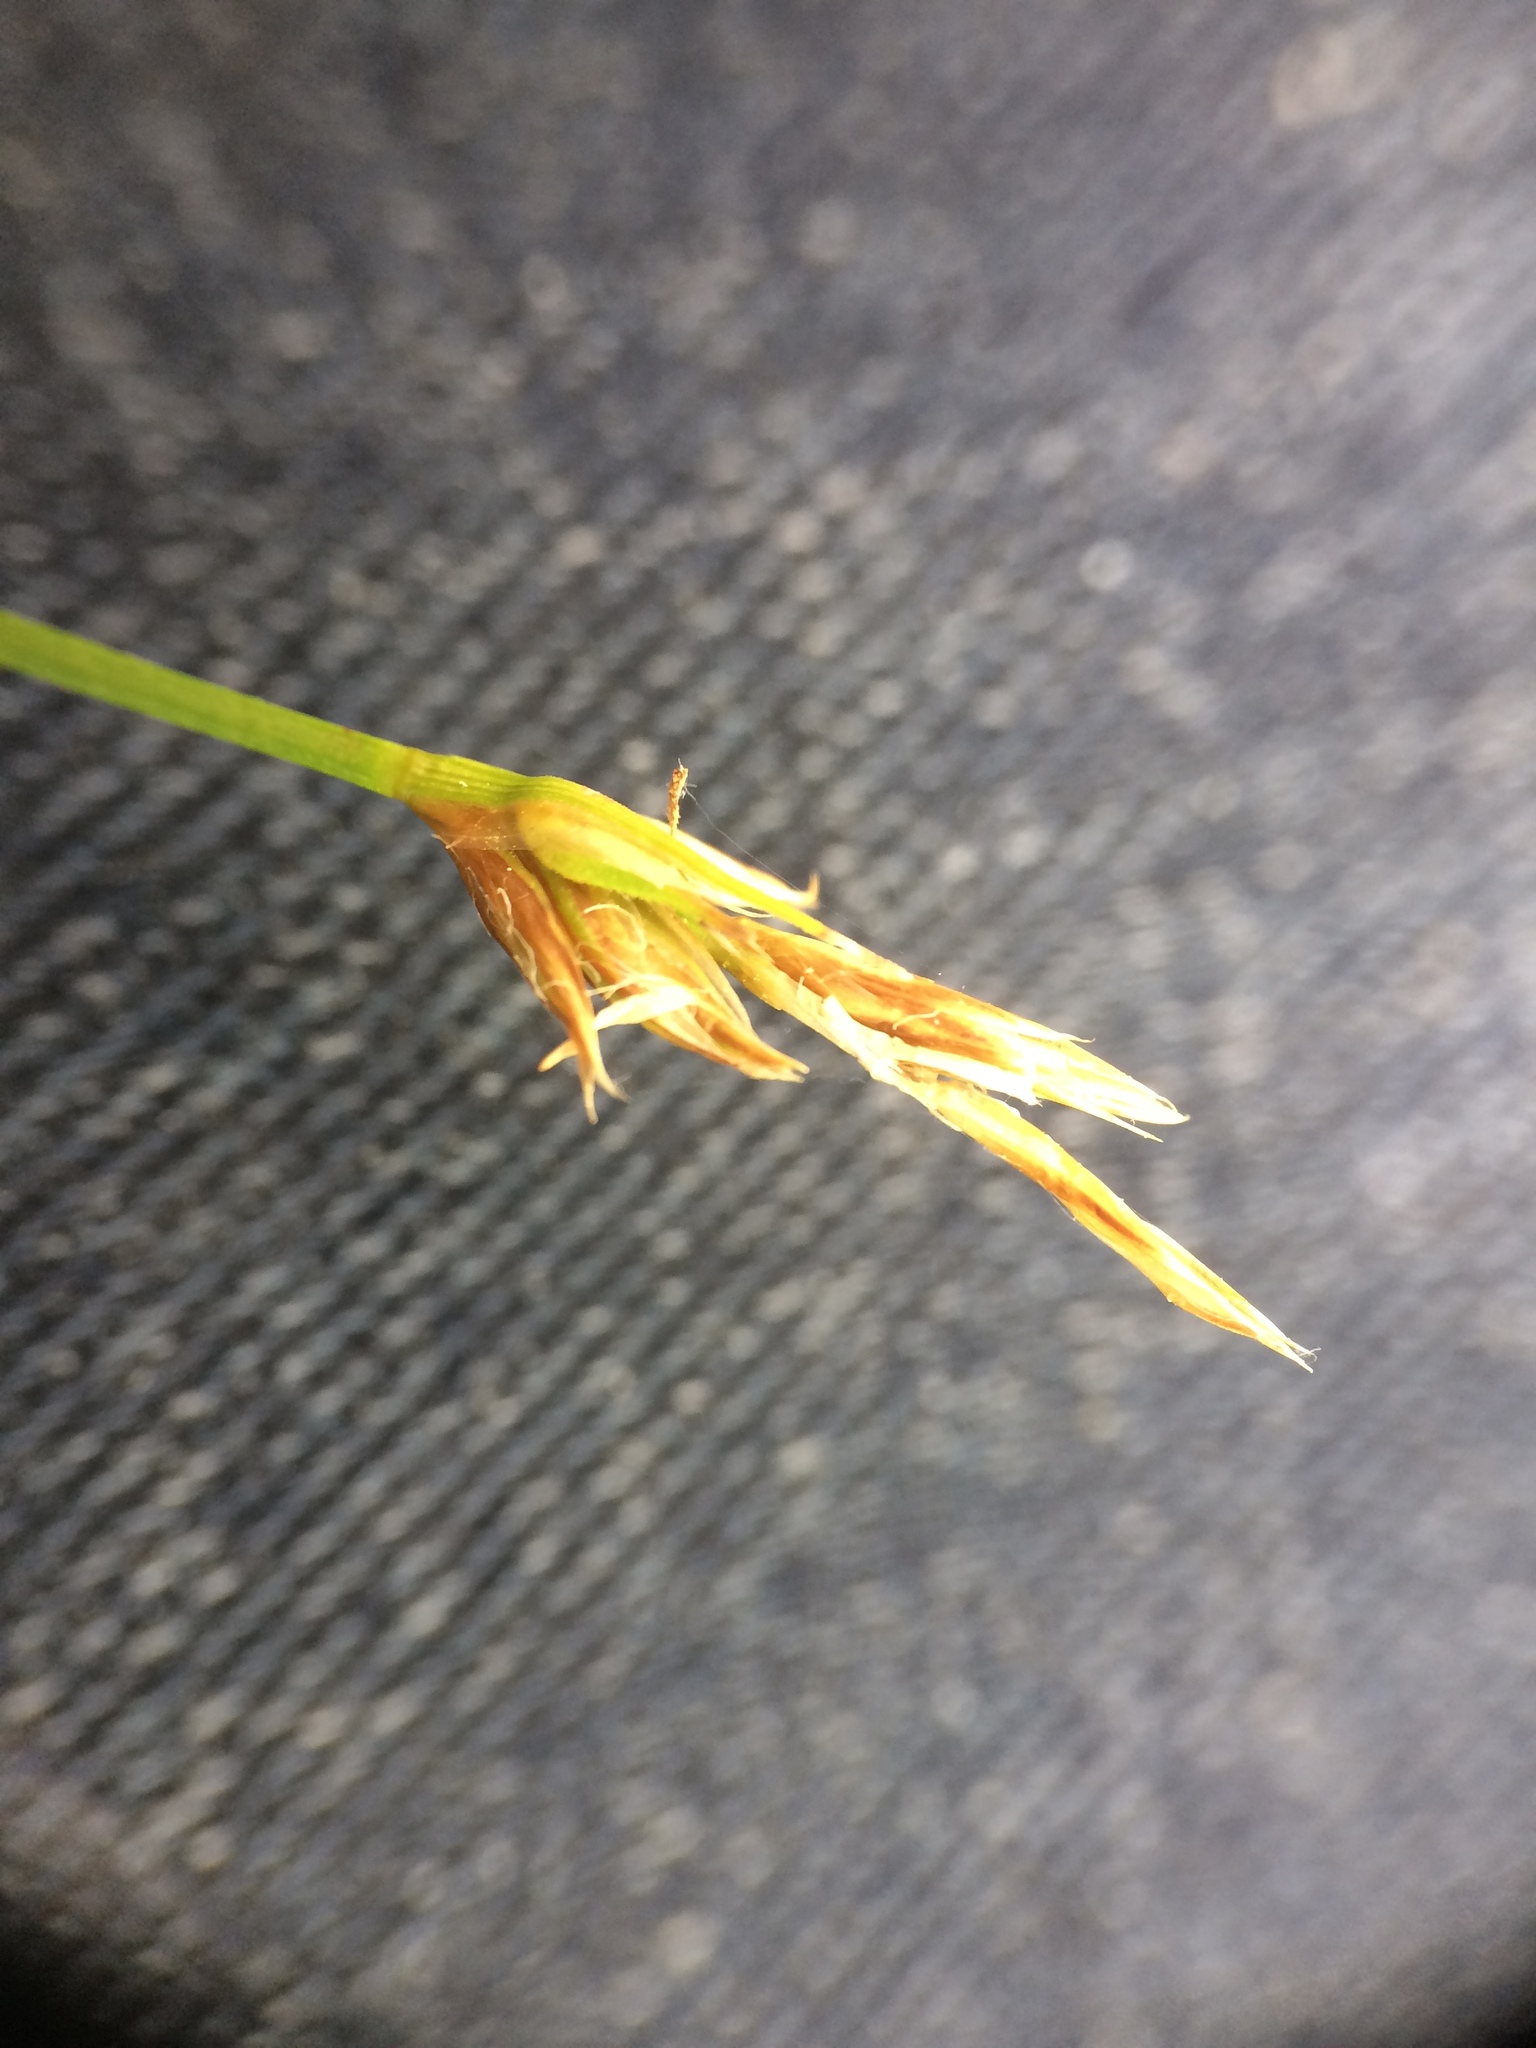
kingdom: Plantae
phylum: Tracheophyta
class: Liliopsida
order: Poales
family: Cyperaceae
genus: Carex
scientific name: Carex siccata
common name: Dry sedge
